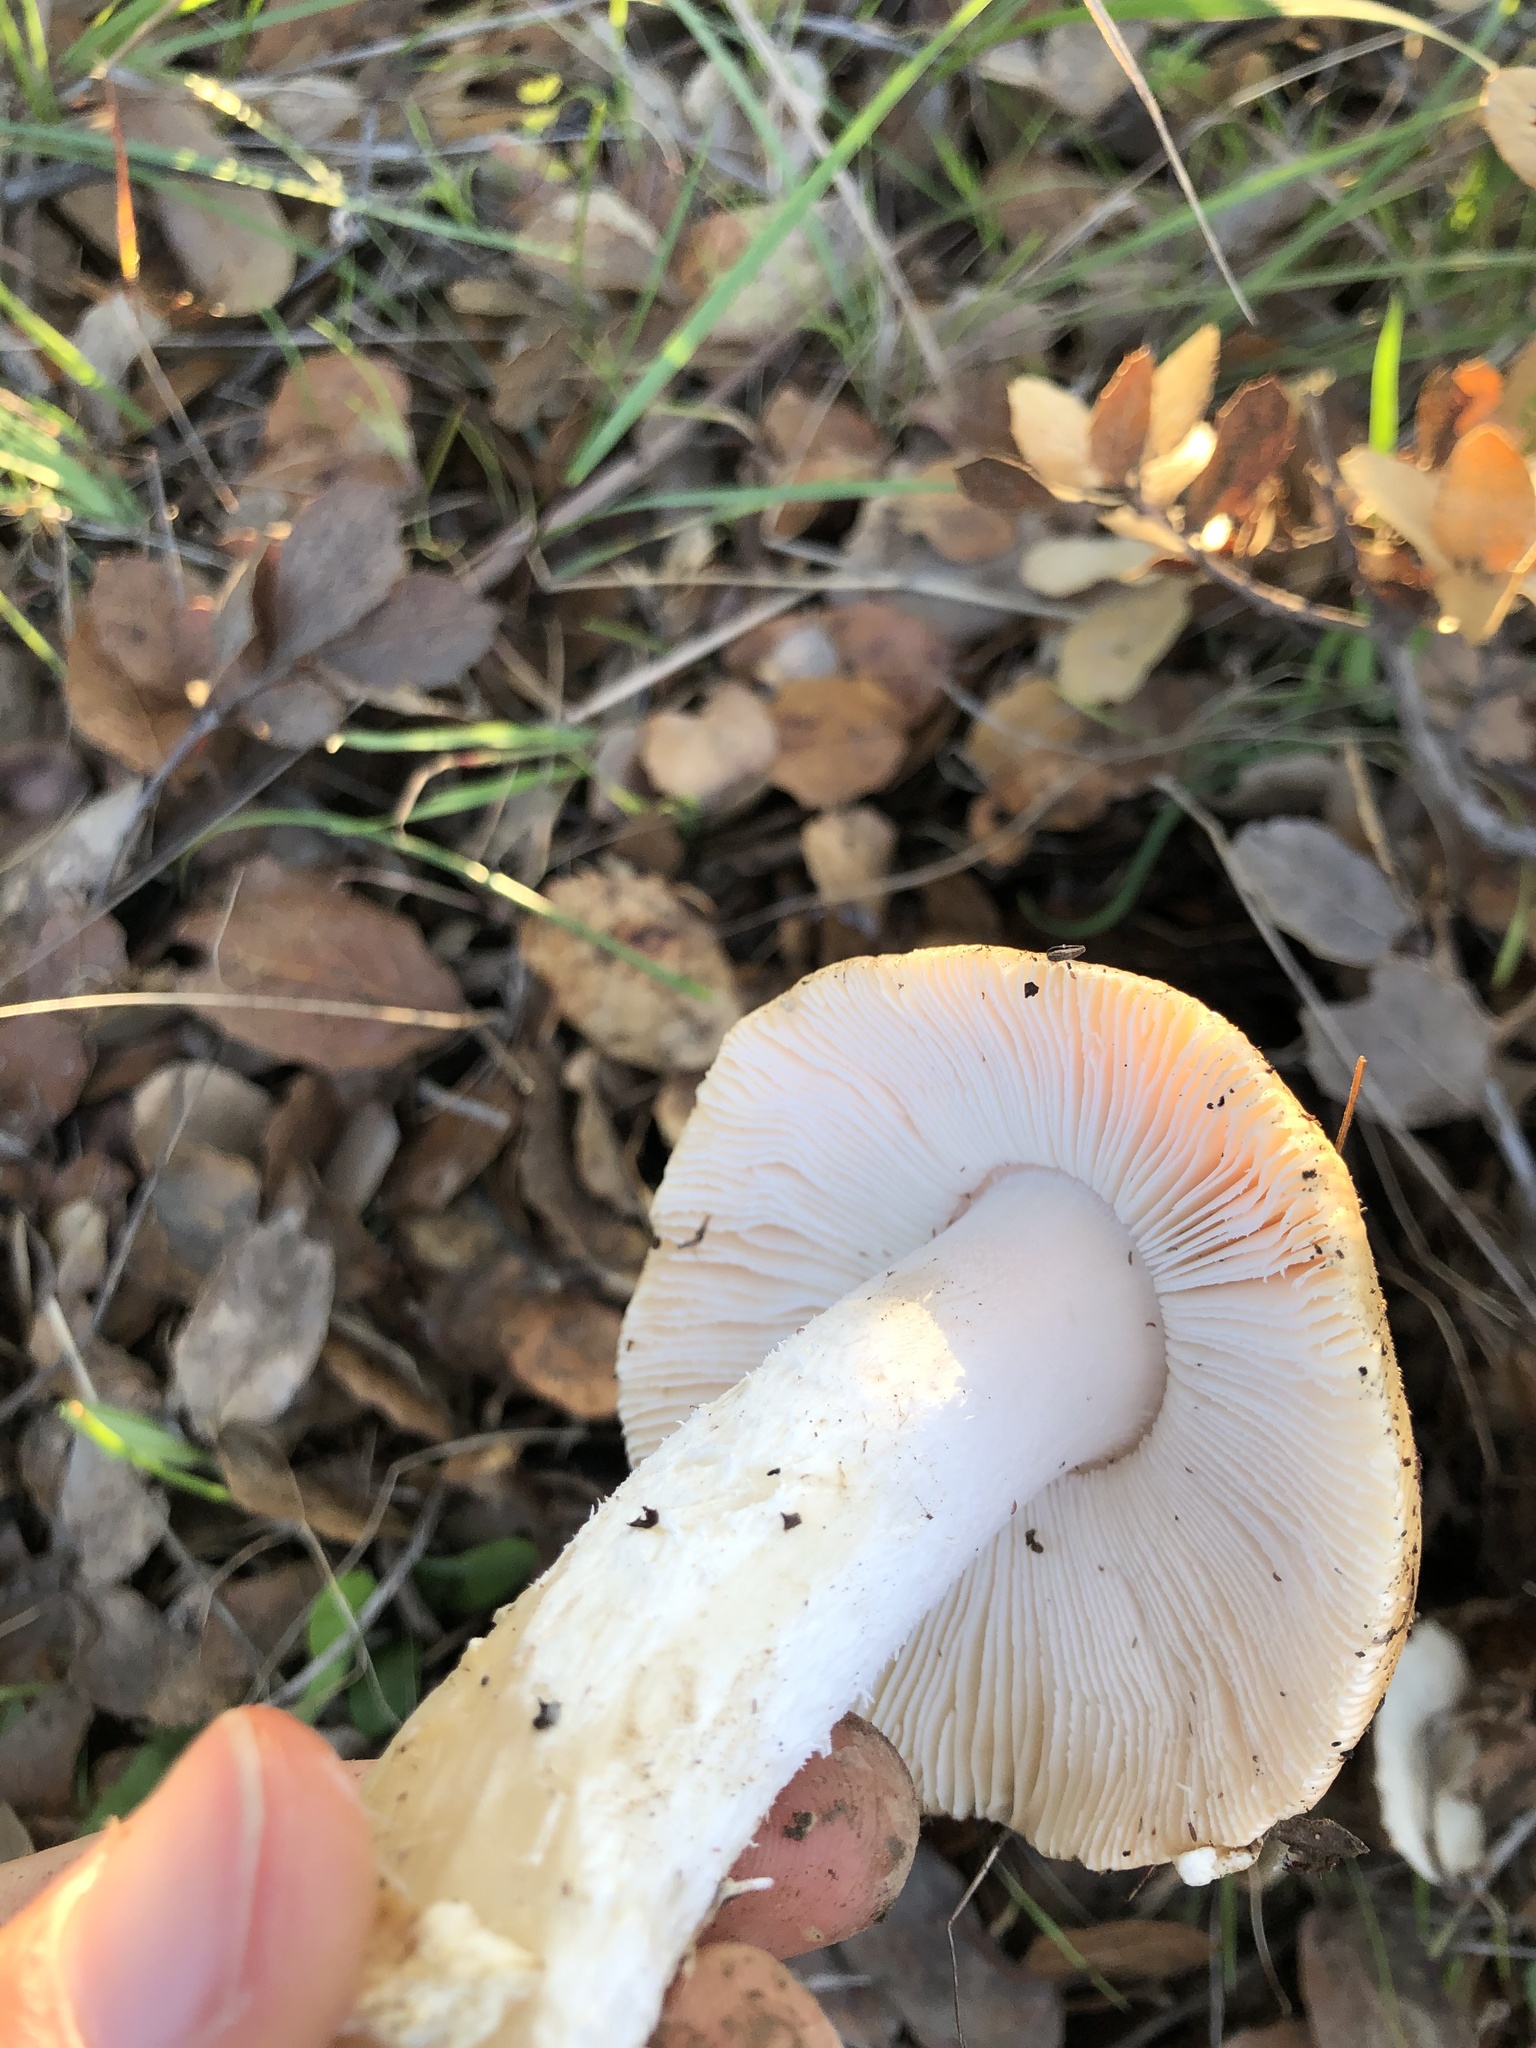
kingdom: Fungi
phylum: Basidiomycota
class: Agaricomycetes
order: Agaricales
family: Amanitaceae
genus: Amanita
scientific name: Amanita velosa
